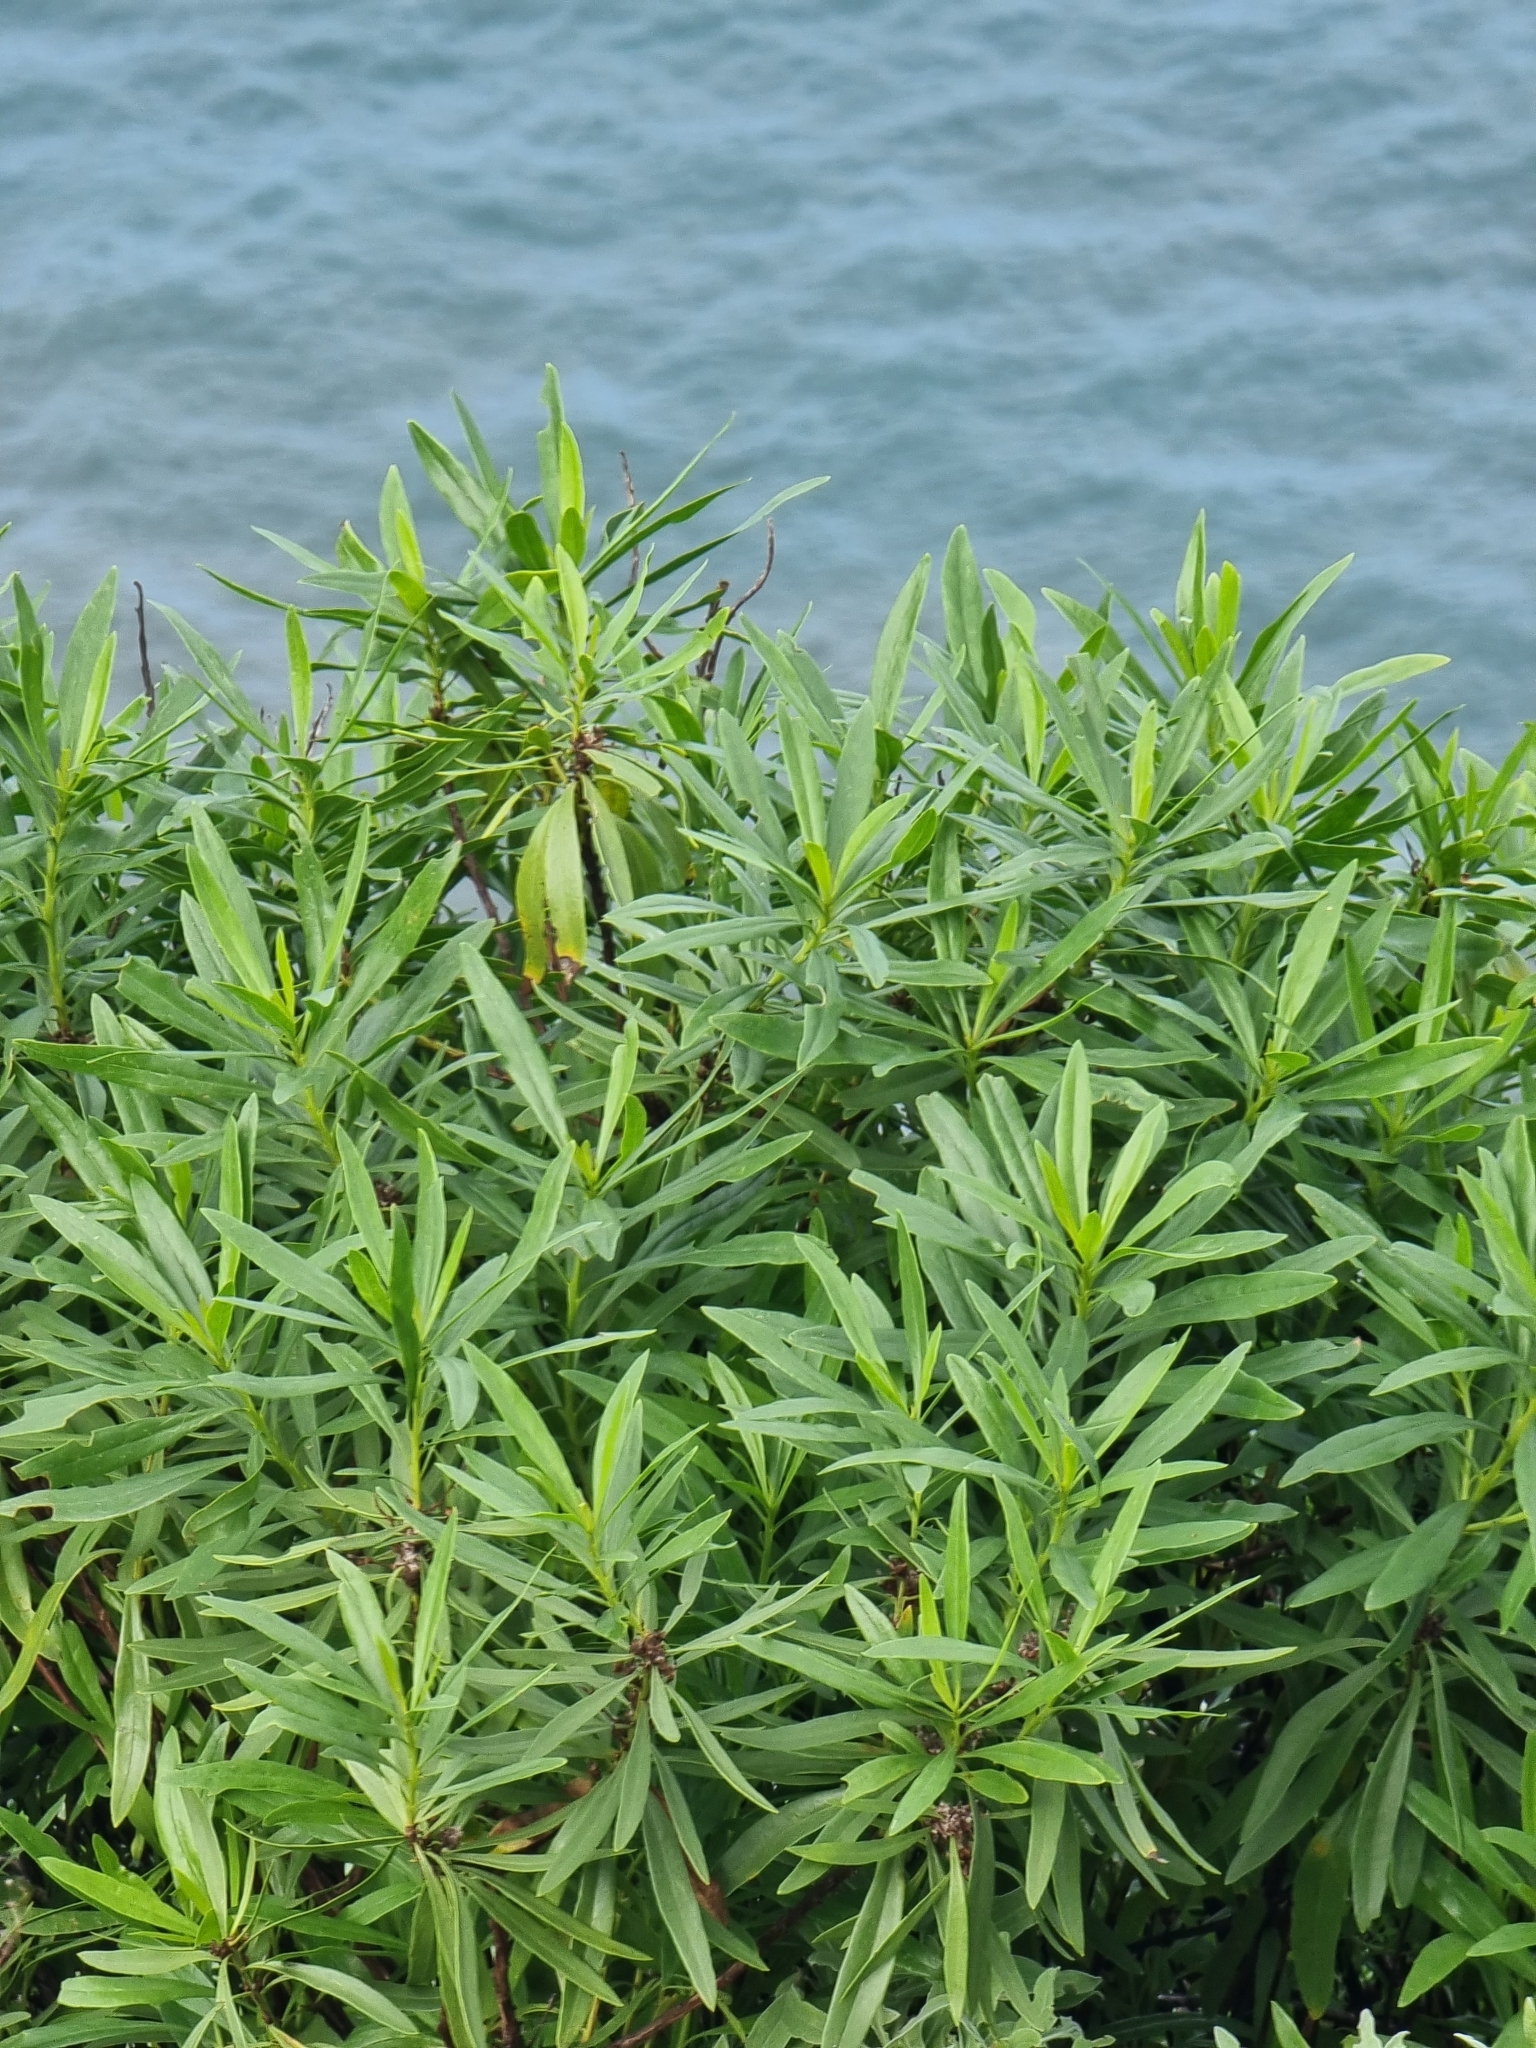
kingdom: Plantae
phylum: Tracheophyta
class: Magnoliopsida
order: Lamiales
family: Plantaginaceae
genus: Globularia
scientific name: Globularia salicina
